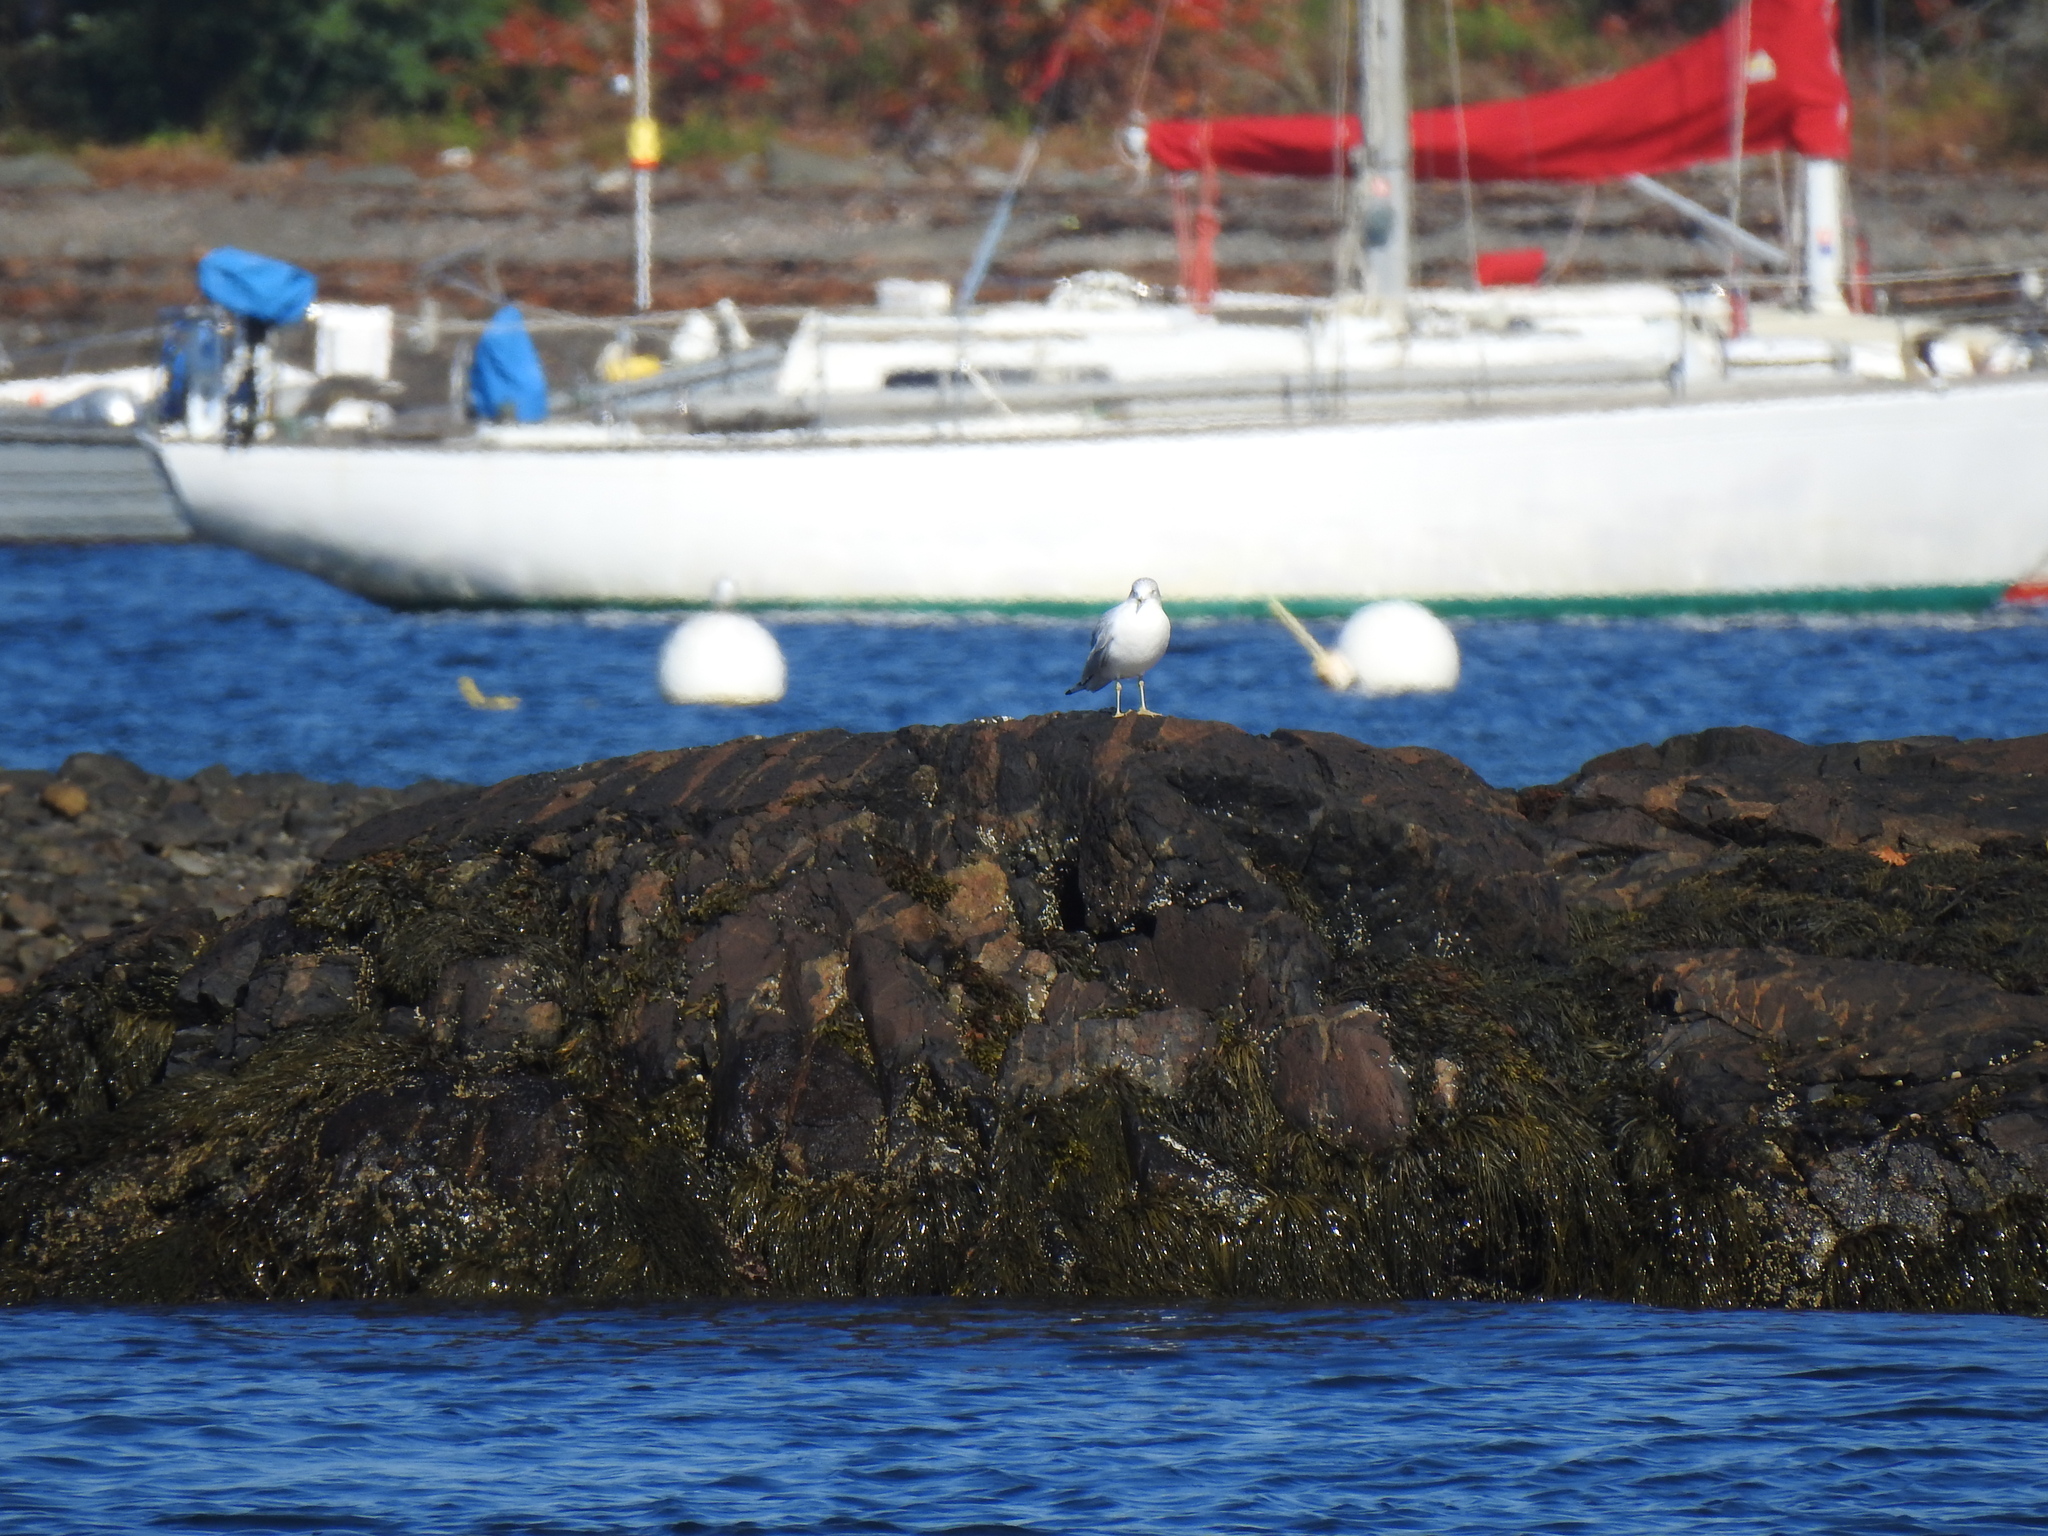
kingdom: Animalia
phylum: Chordata
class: Aves
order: Charadriiformes
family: Laridae
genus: Larus
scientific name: Larus delawarensis
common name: Ring-billed gull
